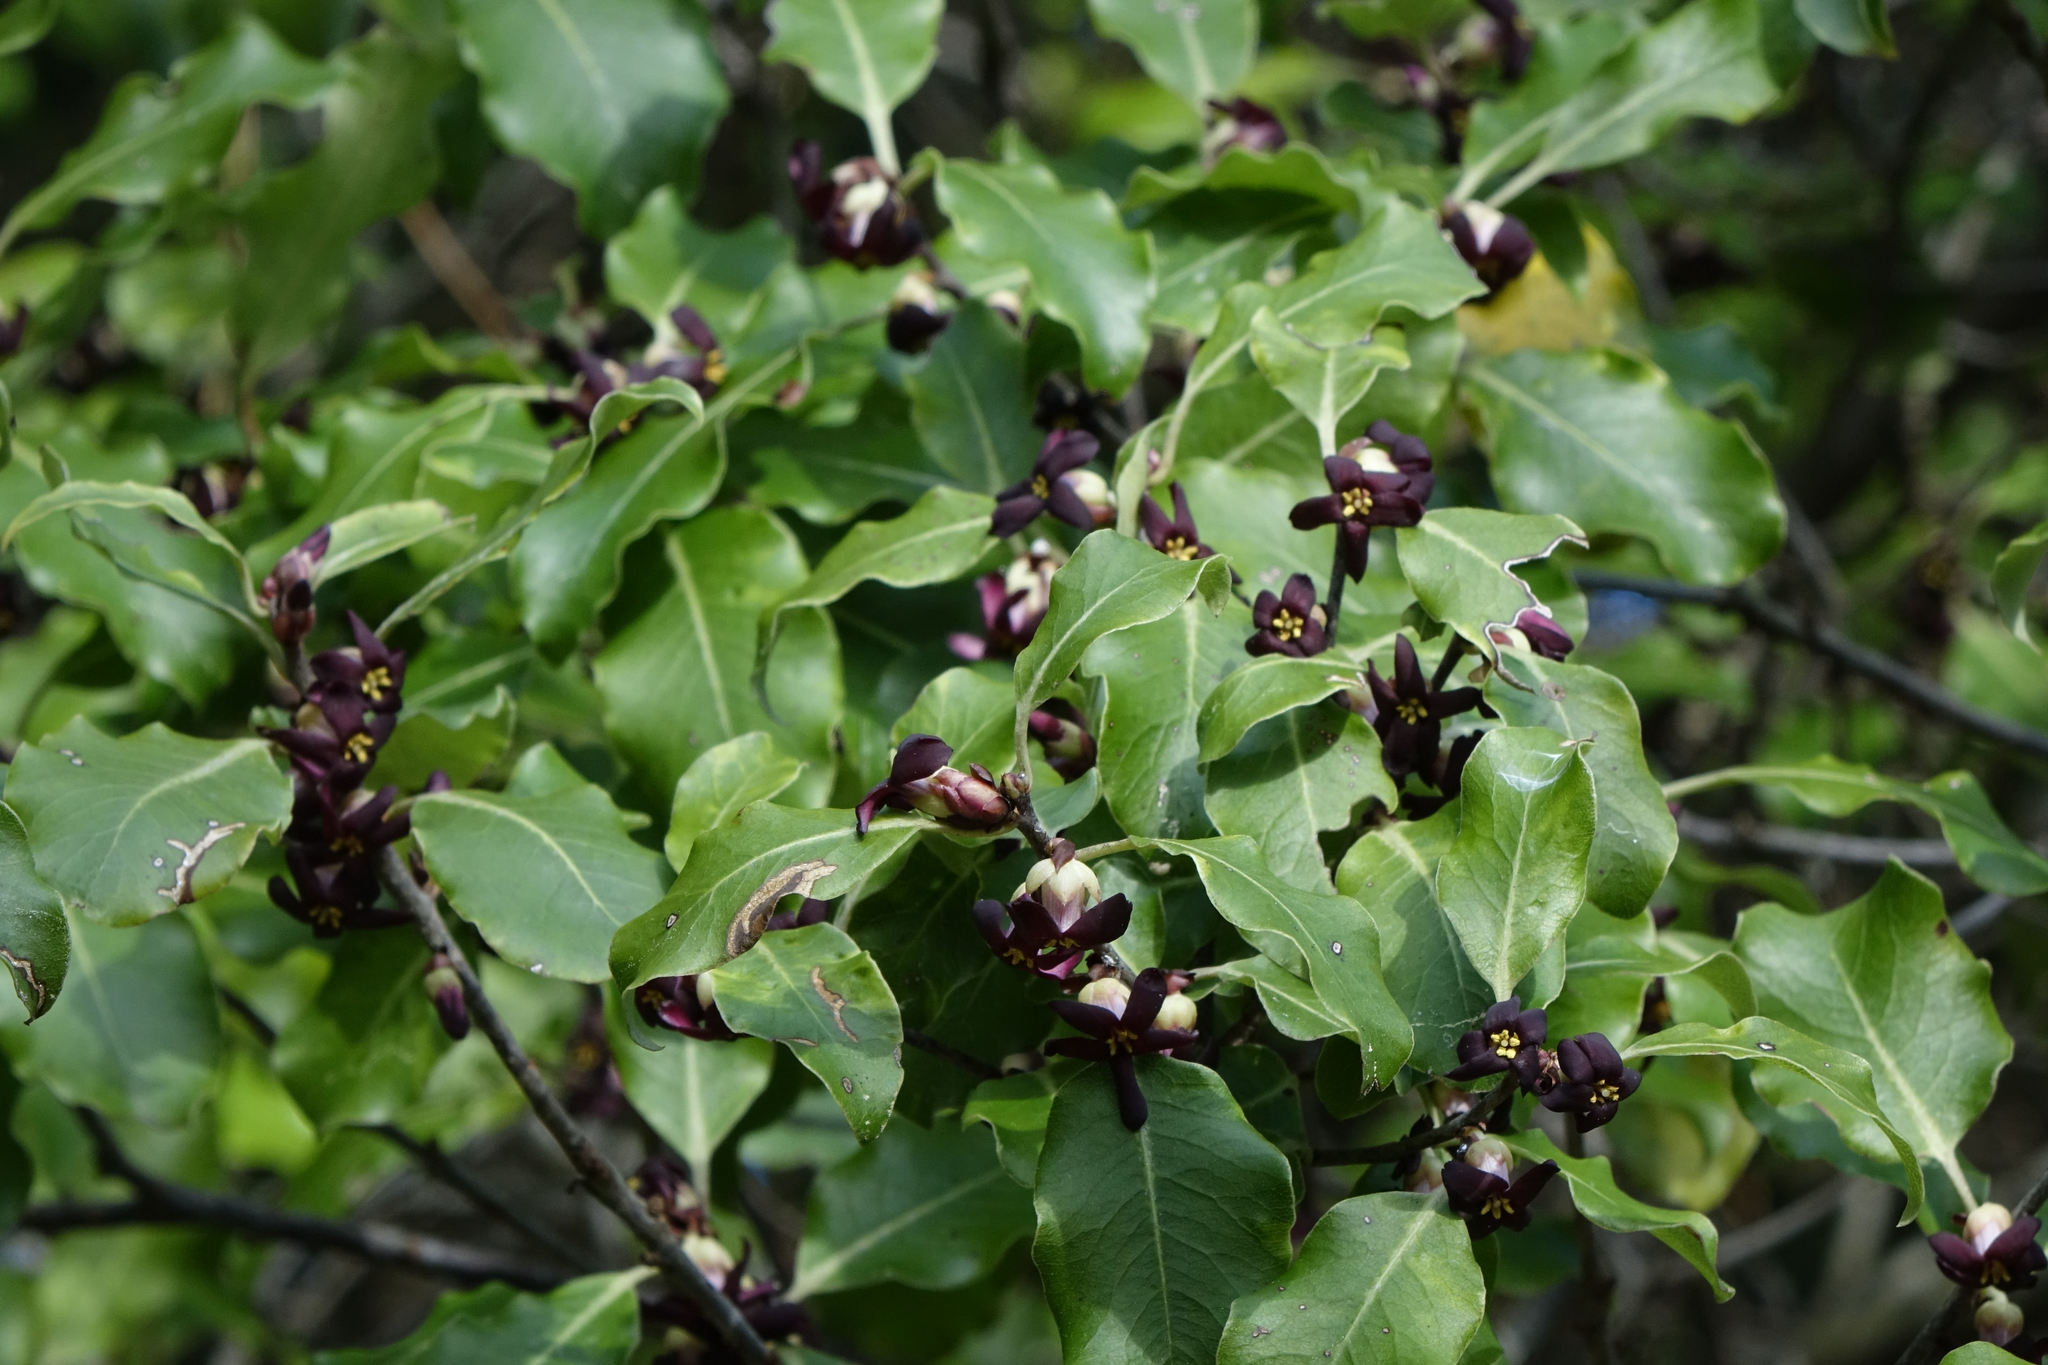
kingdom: Plantae
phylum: Tracheophyta
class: Magnoliopsida
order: Apiales
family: Pittosporaceae
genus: Pittosporum
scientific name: Pittosporum tenuifolium
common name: Kohuhu
